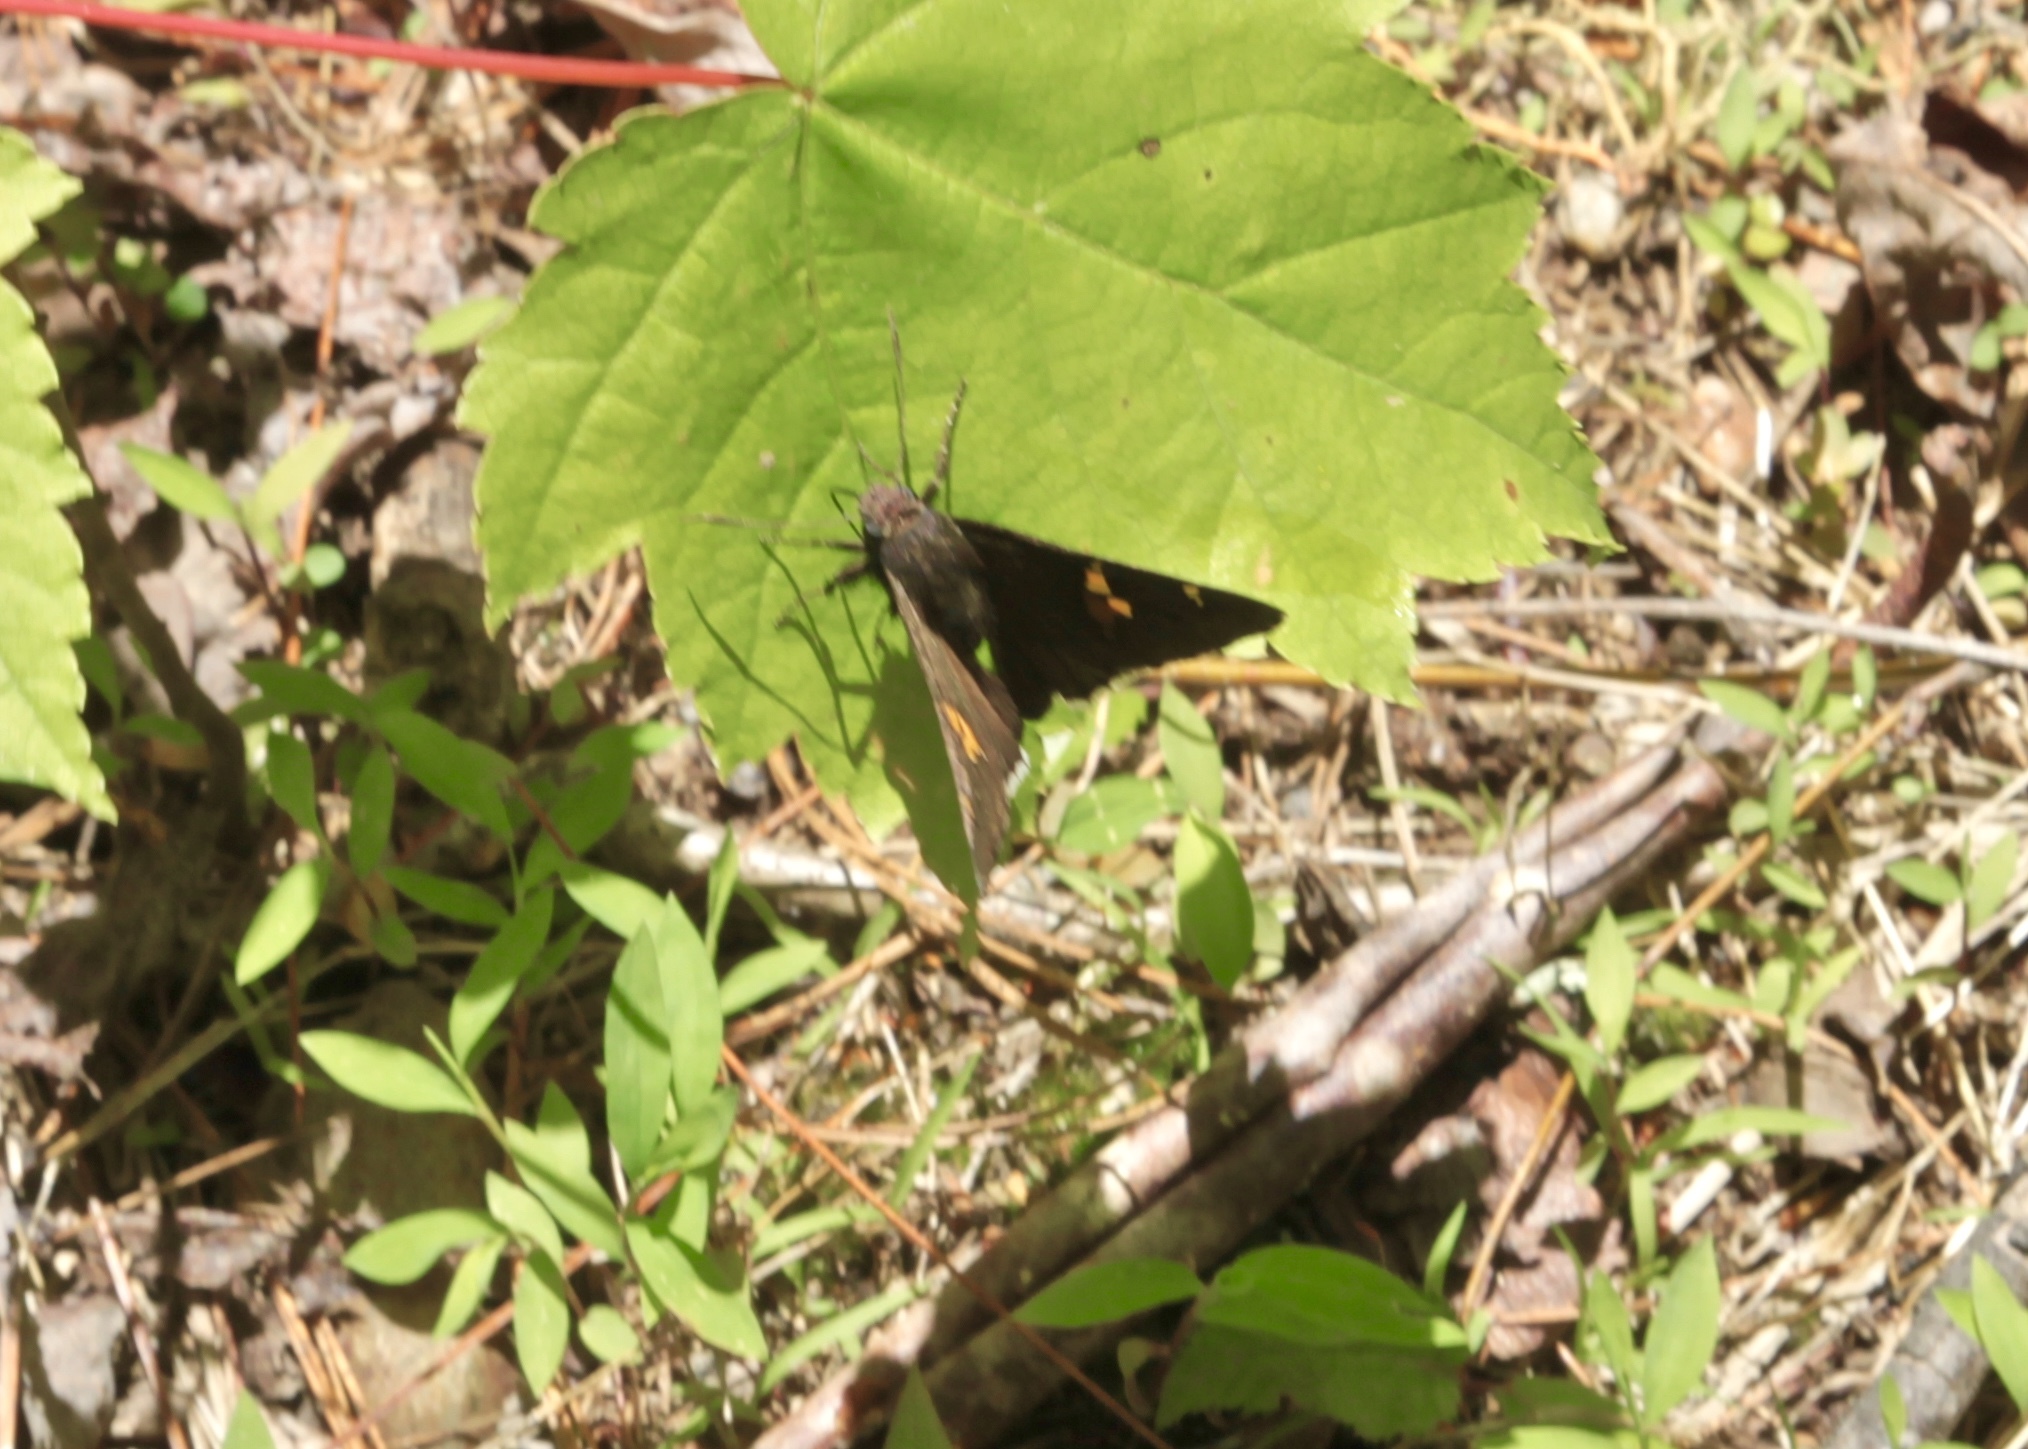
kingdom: Animalia
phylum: Arthropoda
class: Insecta
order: Lepidoptera
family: Hesperiidae
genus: Thorybes
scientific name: Thorybes lyciades
